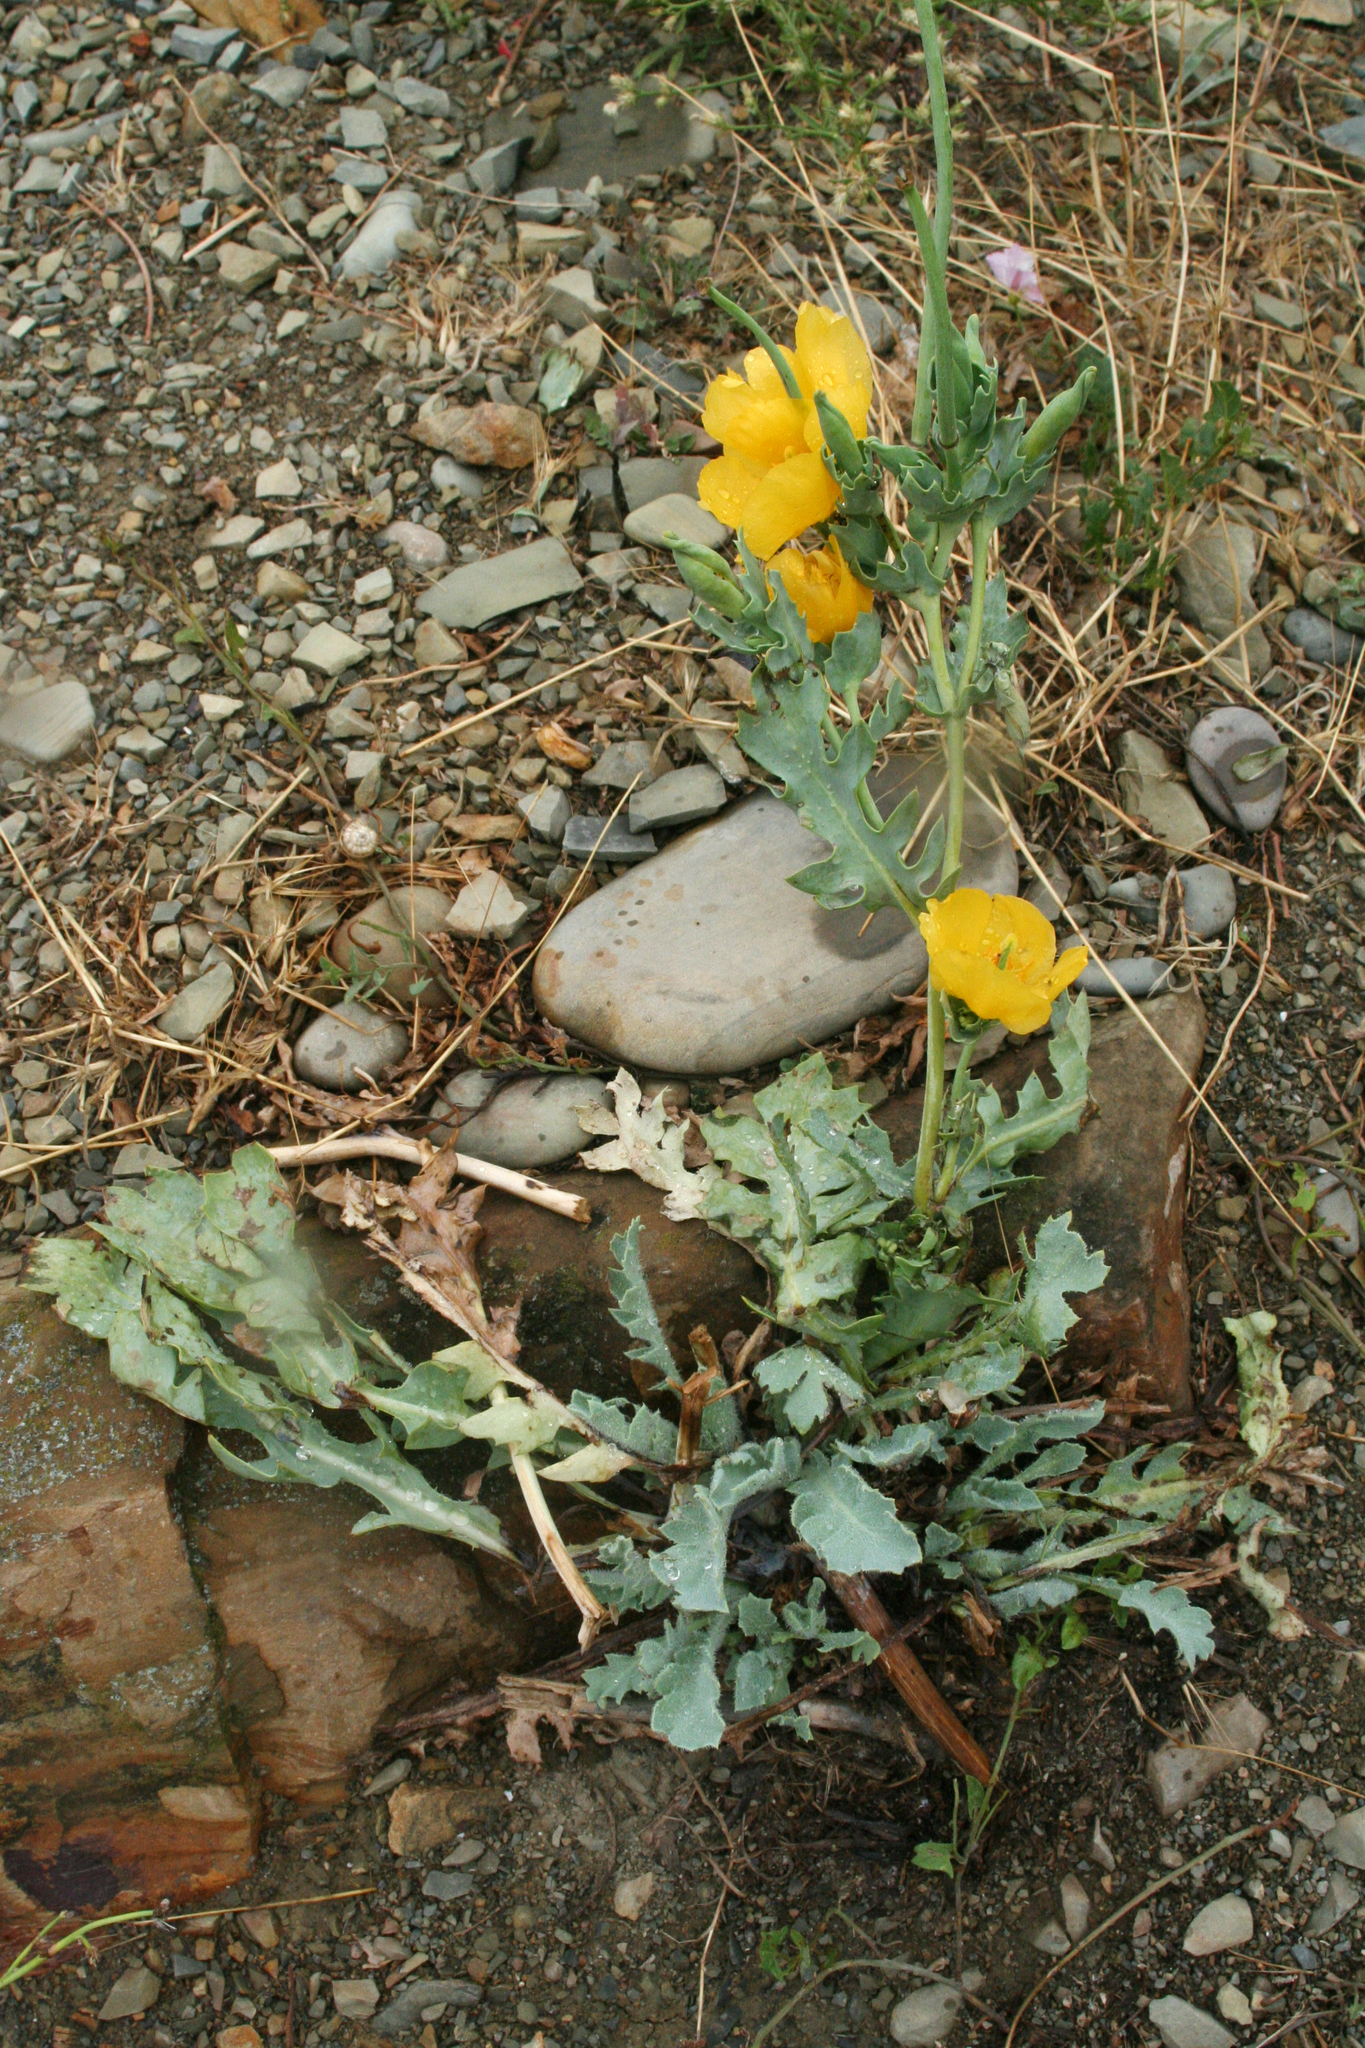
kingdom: Plantae
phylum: Tracheophyta
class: Magnoliopsida
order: Ranunculales
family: Papaveraceae
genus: Glaucium
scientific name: Glaucium flavum
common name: Yellow horned-poppy
